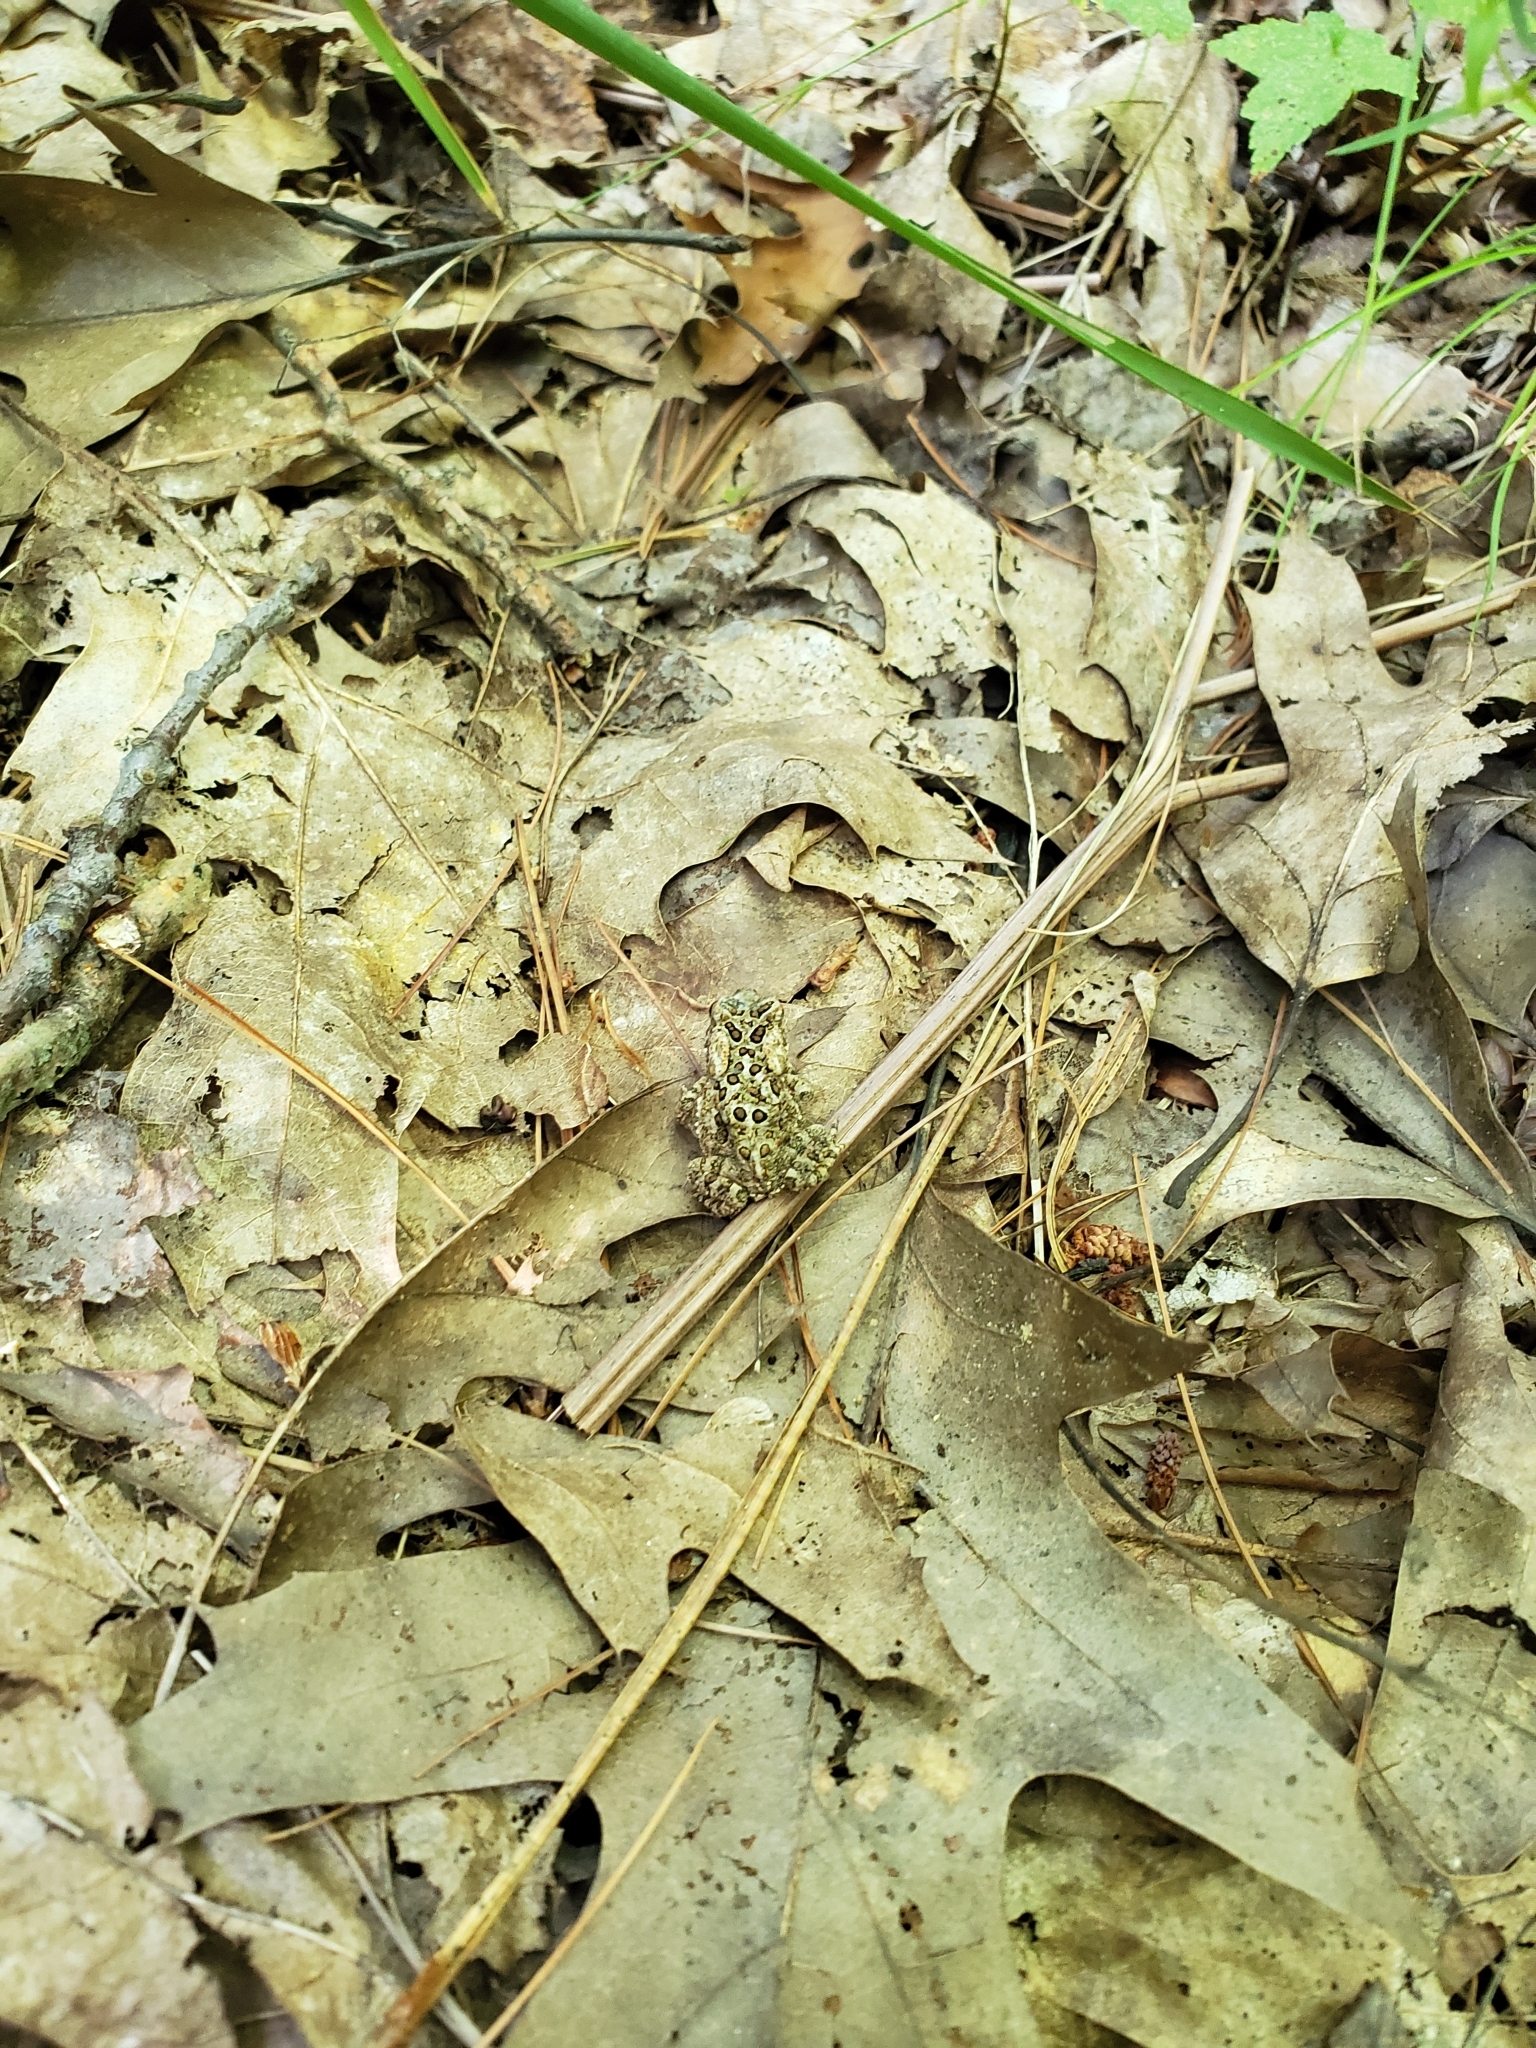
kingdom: Animalia
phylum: Chordata
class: Amphibia
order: Anura
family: Bufonidae
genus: Anaxyrus
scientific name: Anaxyrus americanus
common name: American toad
